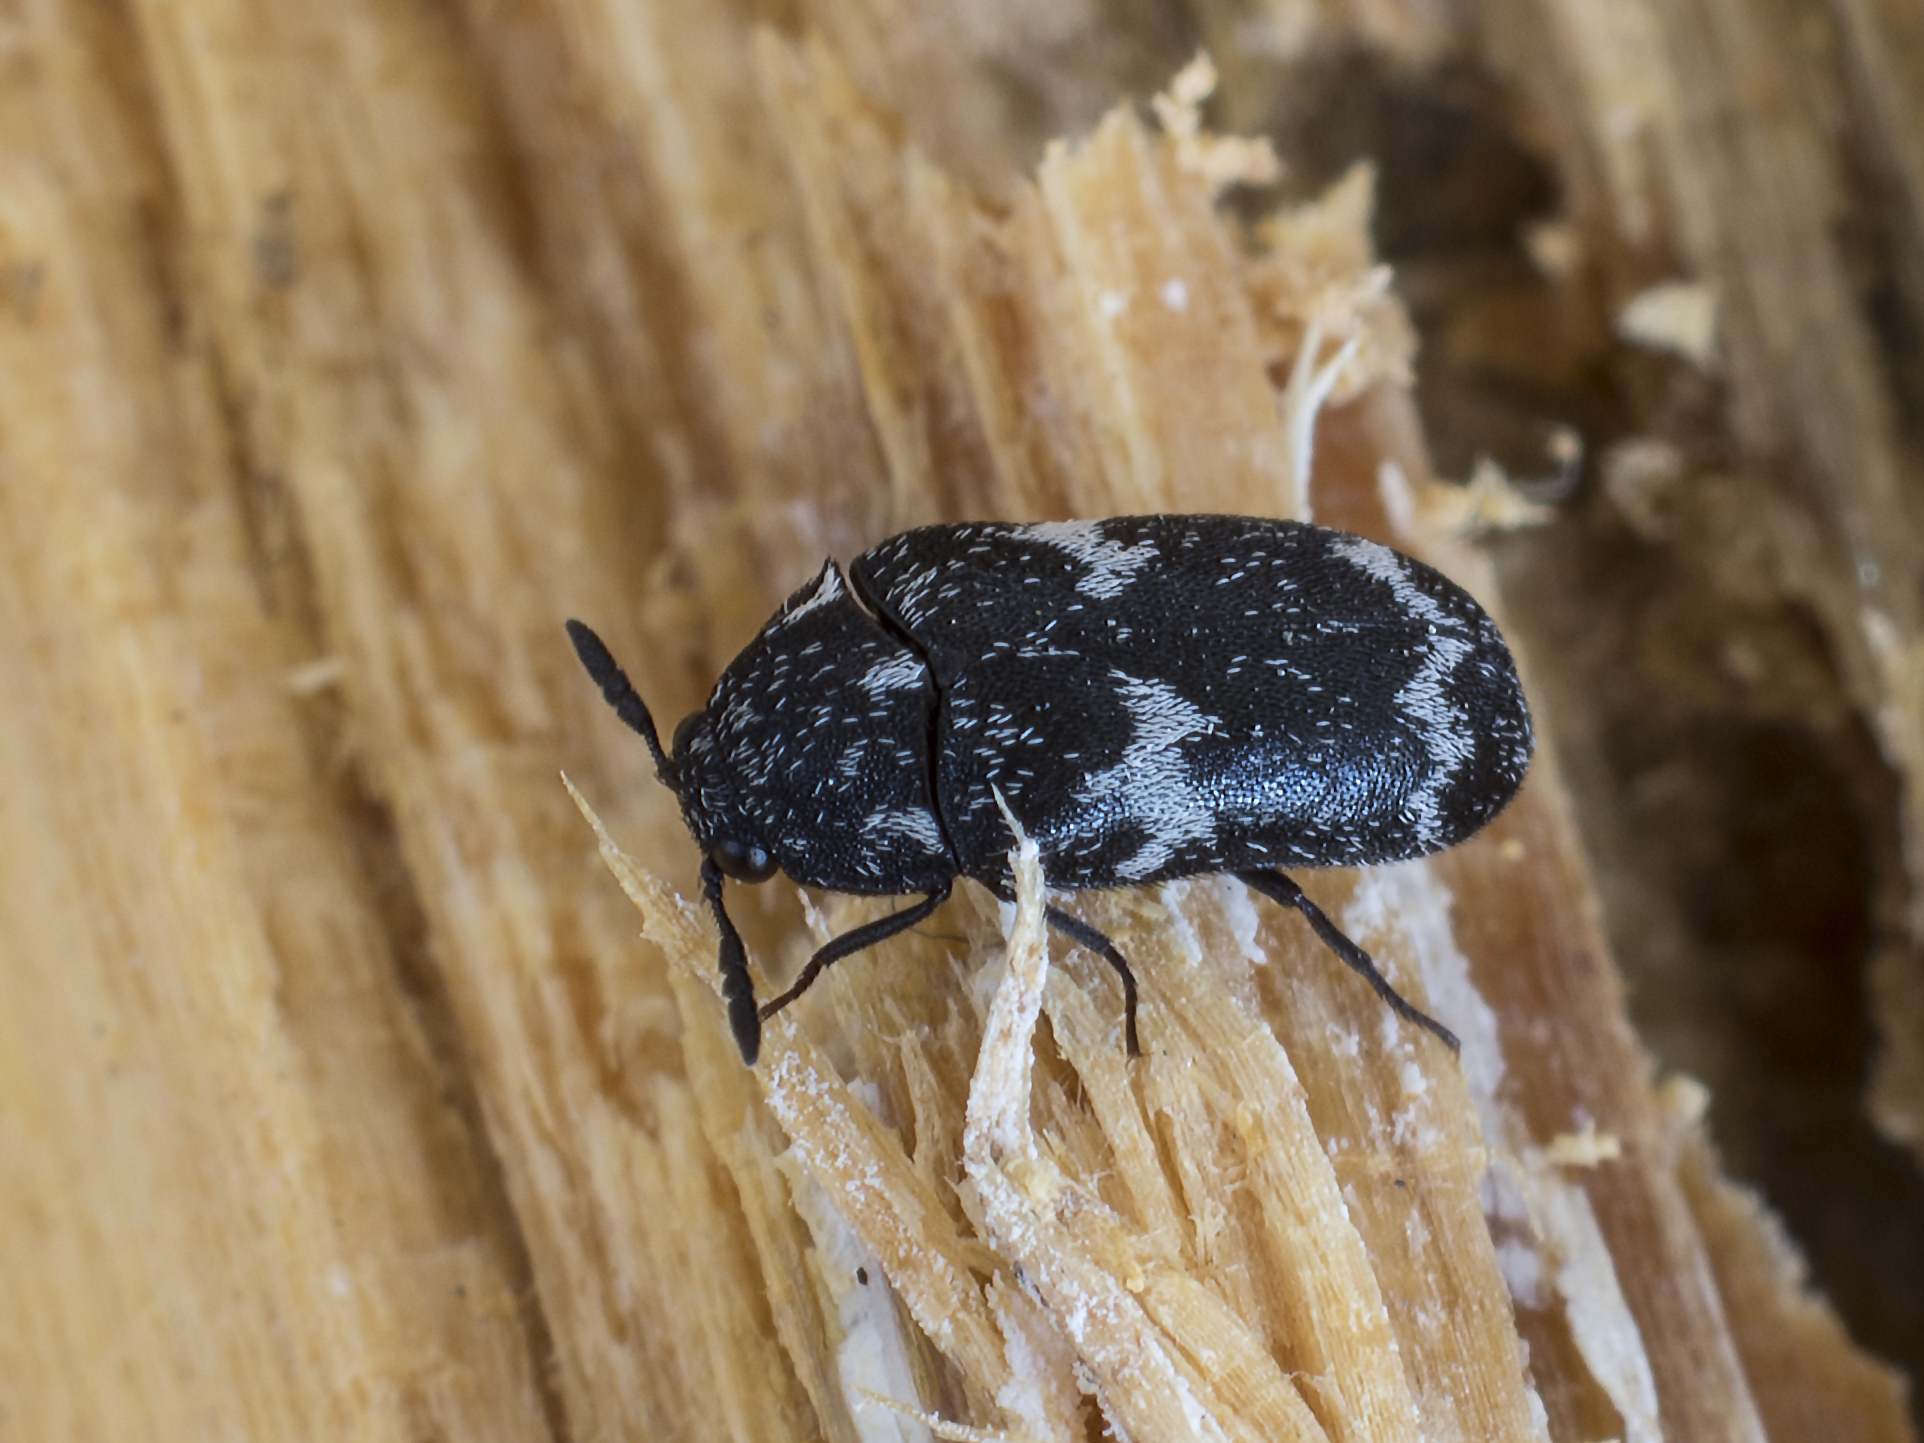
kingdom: Animalia
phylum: Arthropoda
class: Insecta
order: Coleoptera
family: Dermestidae
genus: Megatoma
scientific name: Megatoma undata
